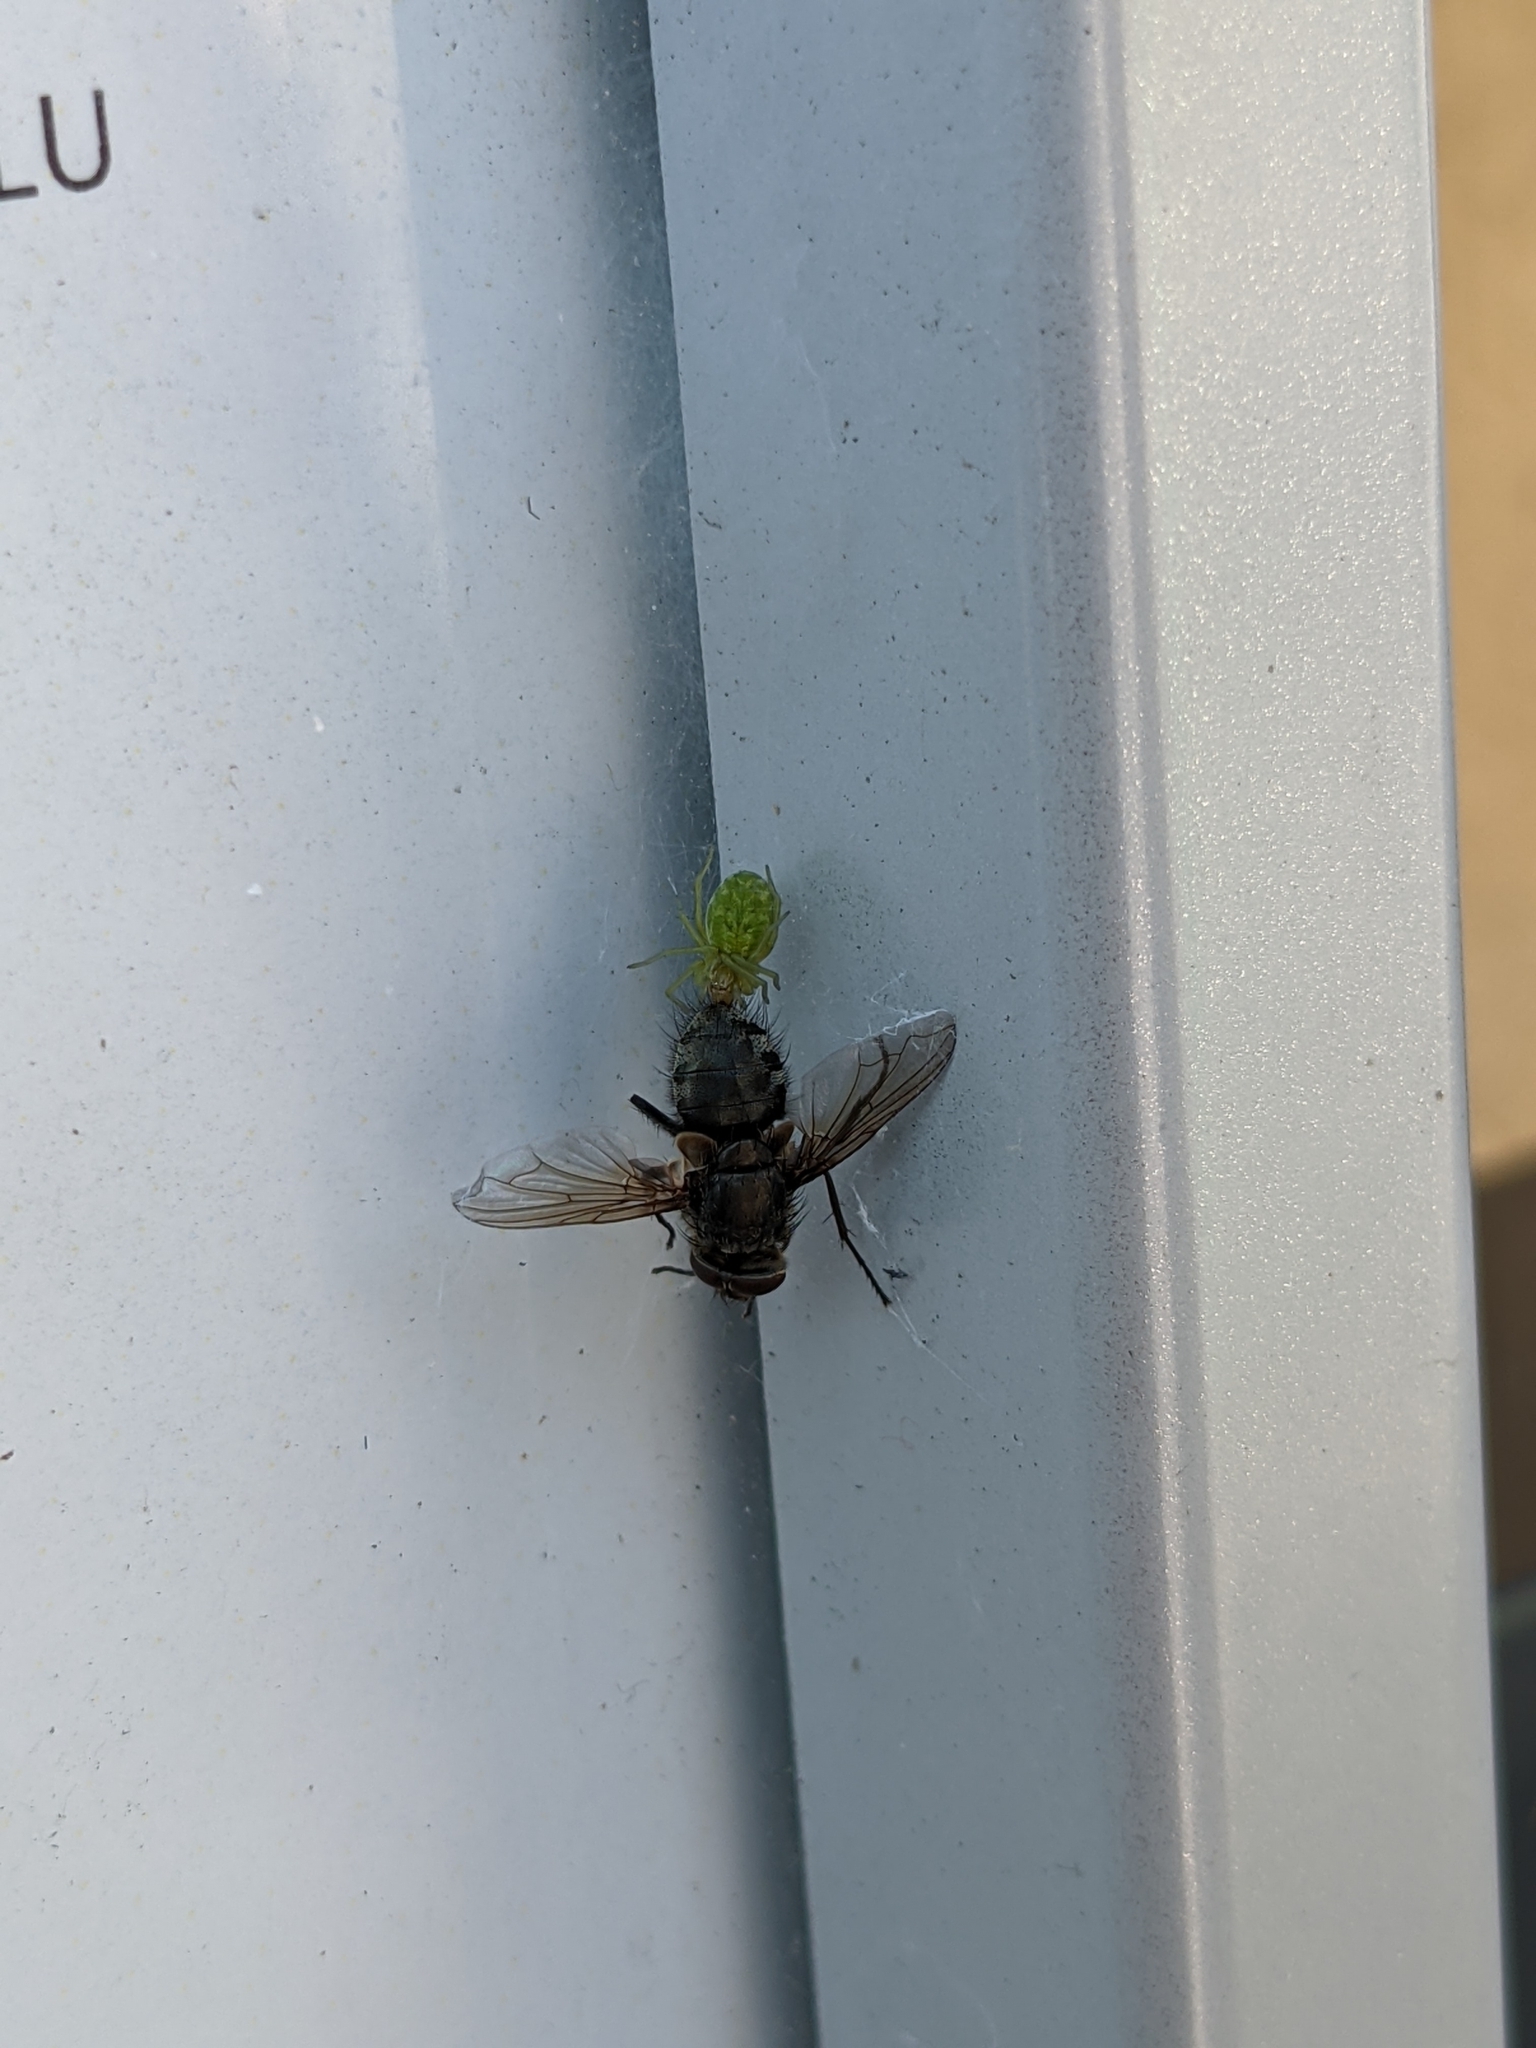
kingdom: Animalia
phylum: Arthropoda
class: Arachnida
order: Araneae
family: Dictynidae
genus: Nigma
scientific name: Nigma walckenaeri
